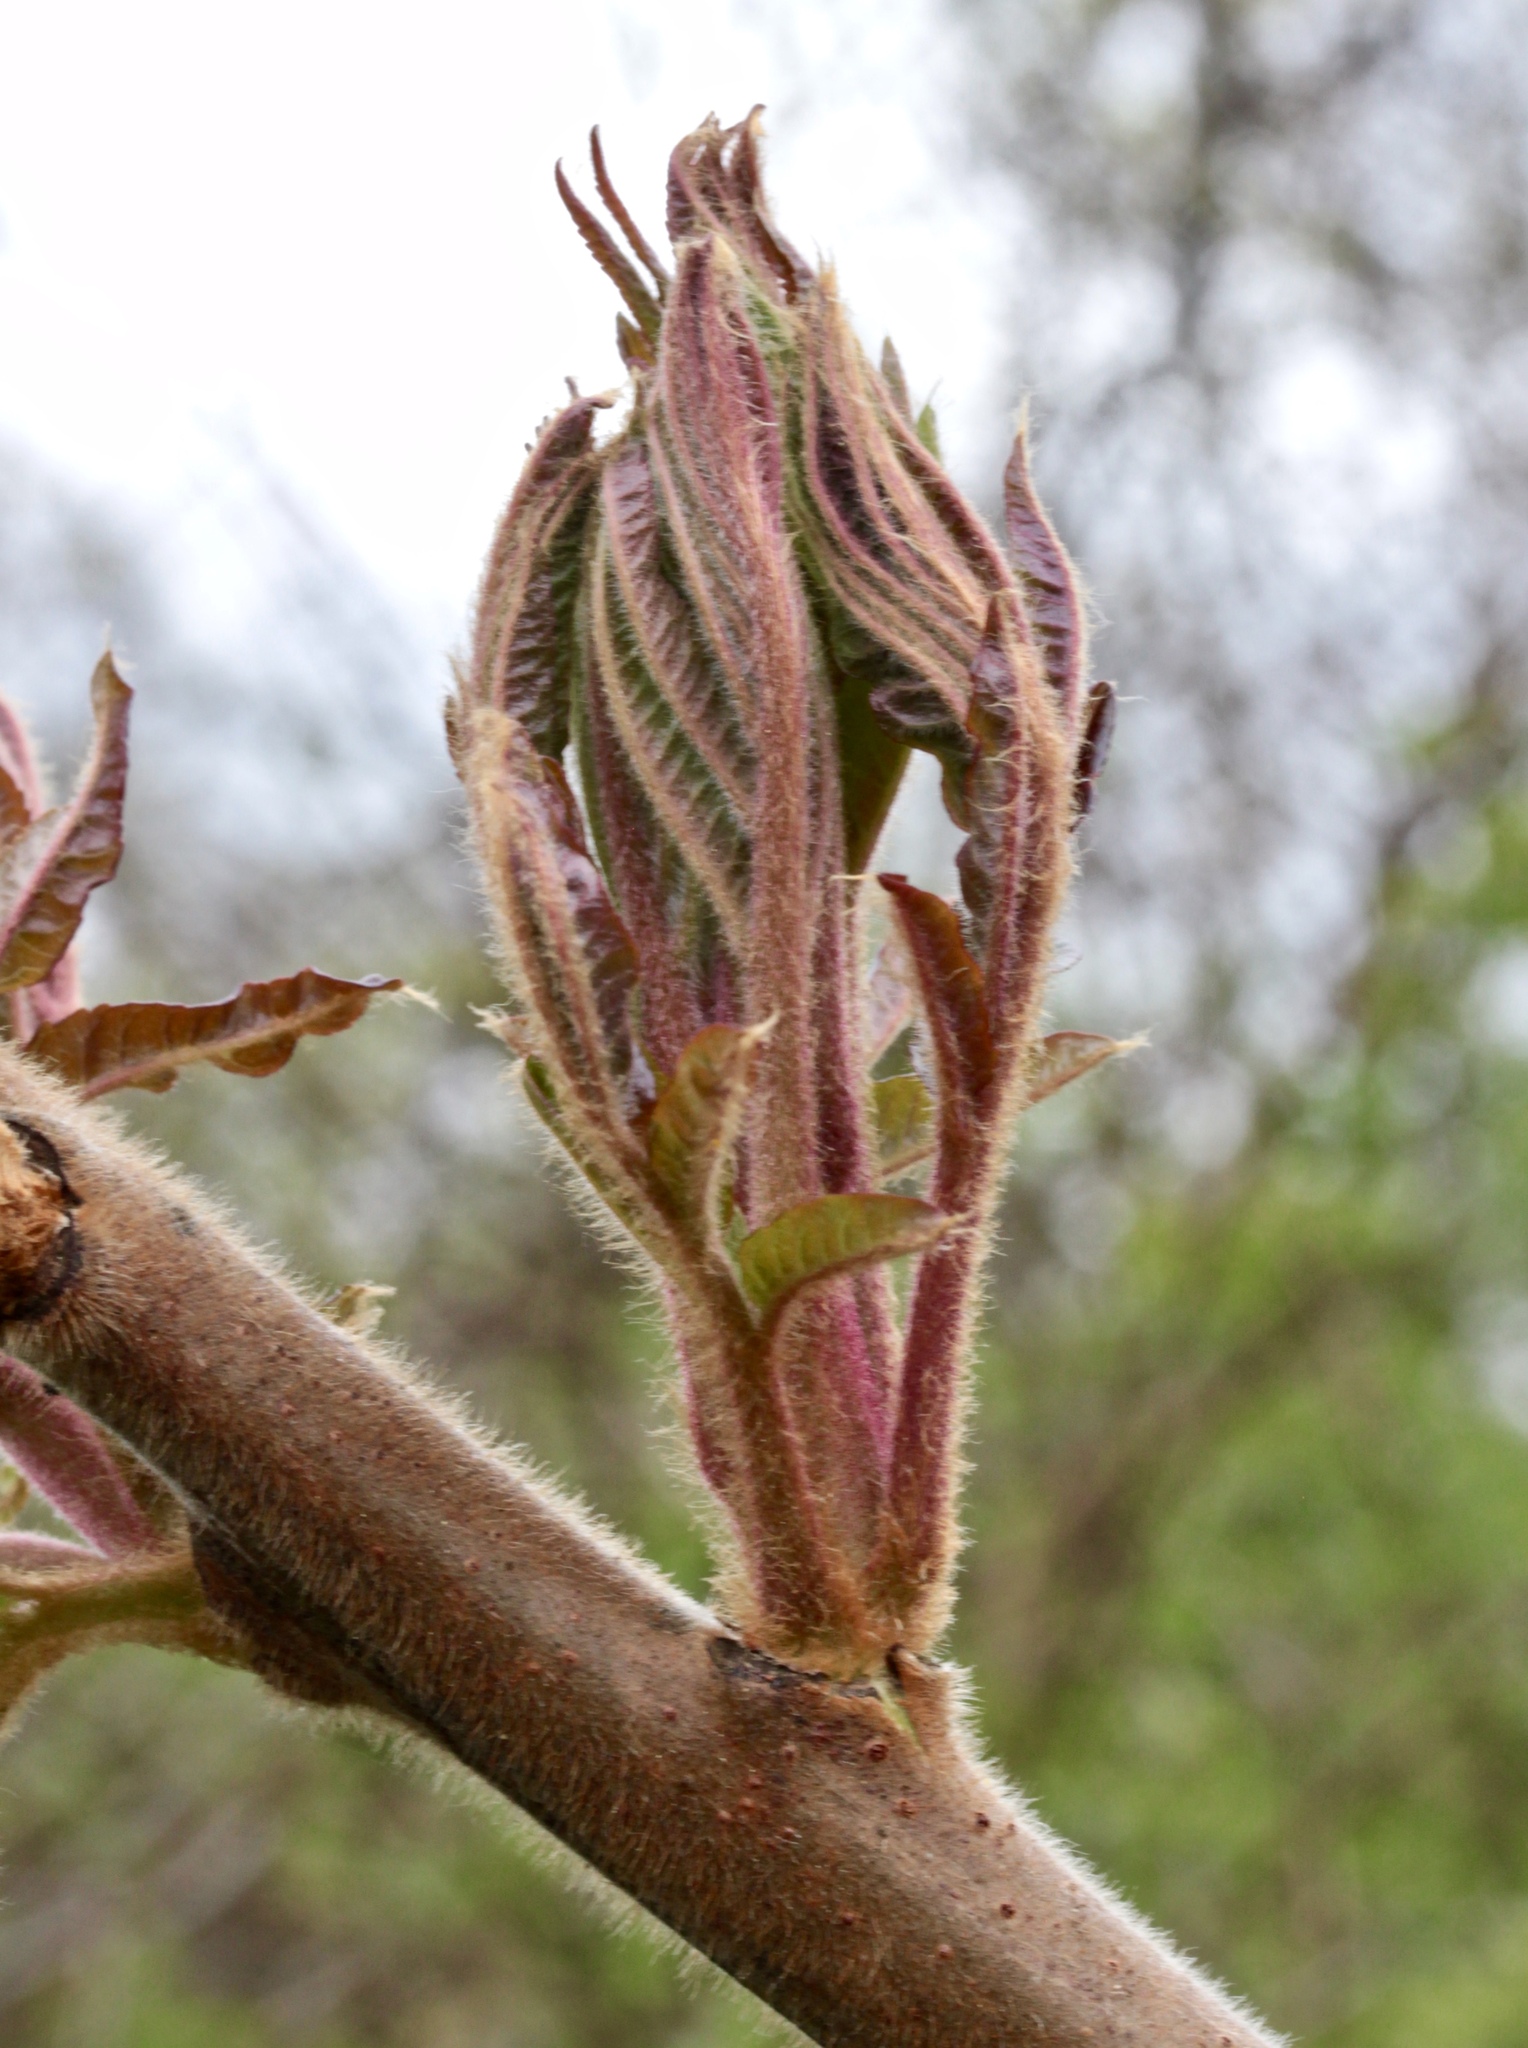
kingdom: Plantae
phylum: Tracheophyta
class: Magnoliopsida
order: Sapindales
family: Anacardiaceae
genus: Rhus
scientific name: Rhus typhina
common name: Staghorn sumac
